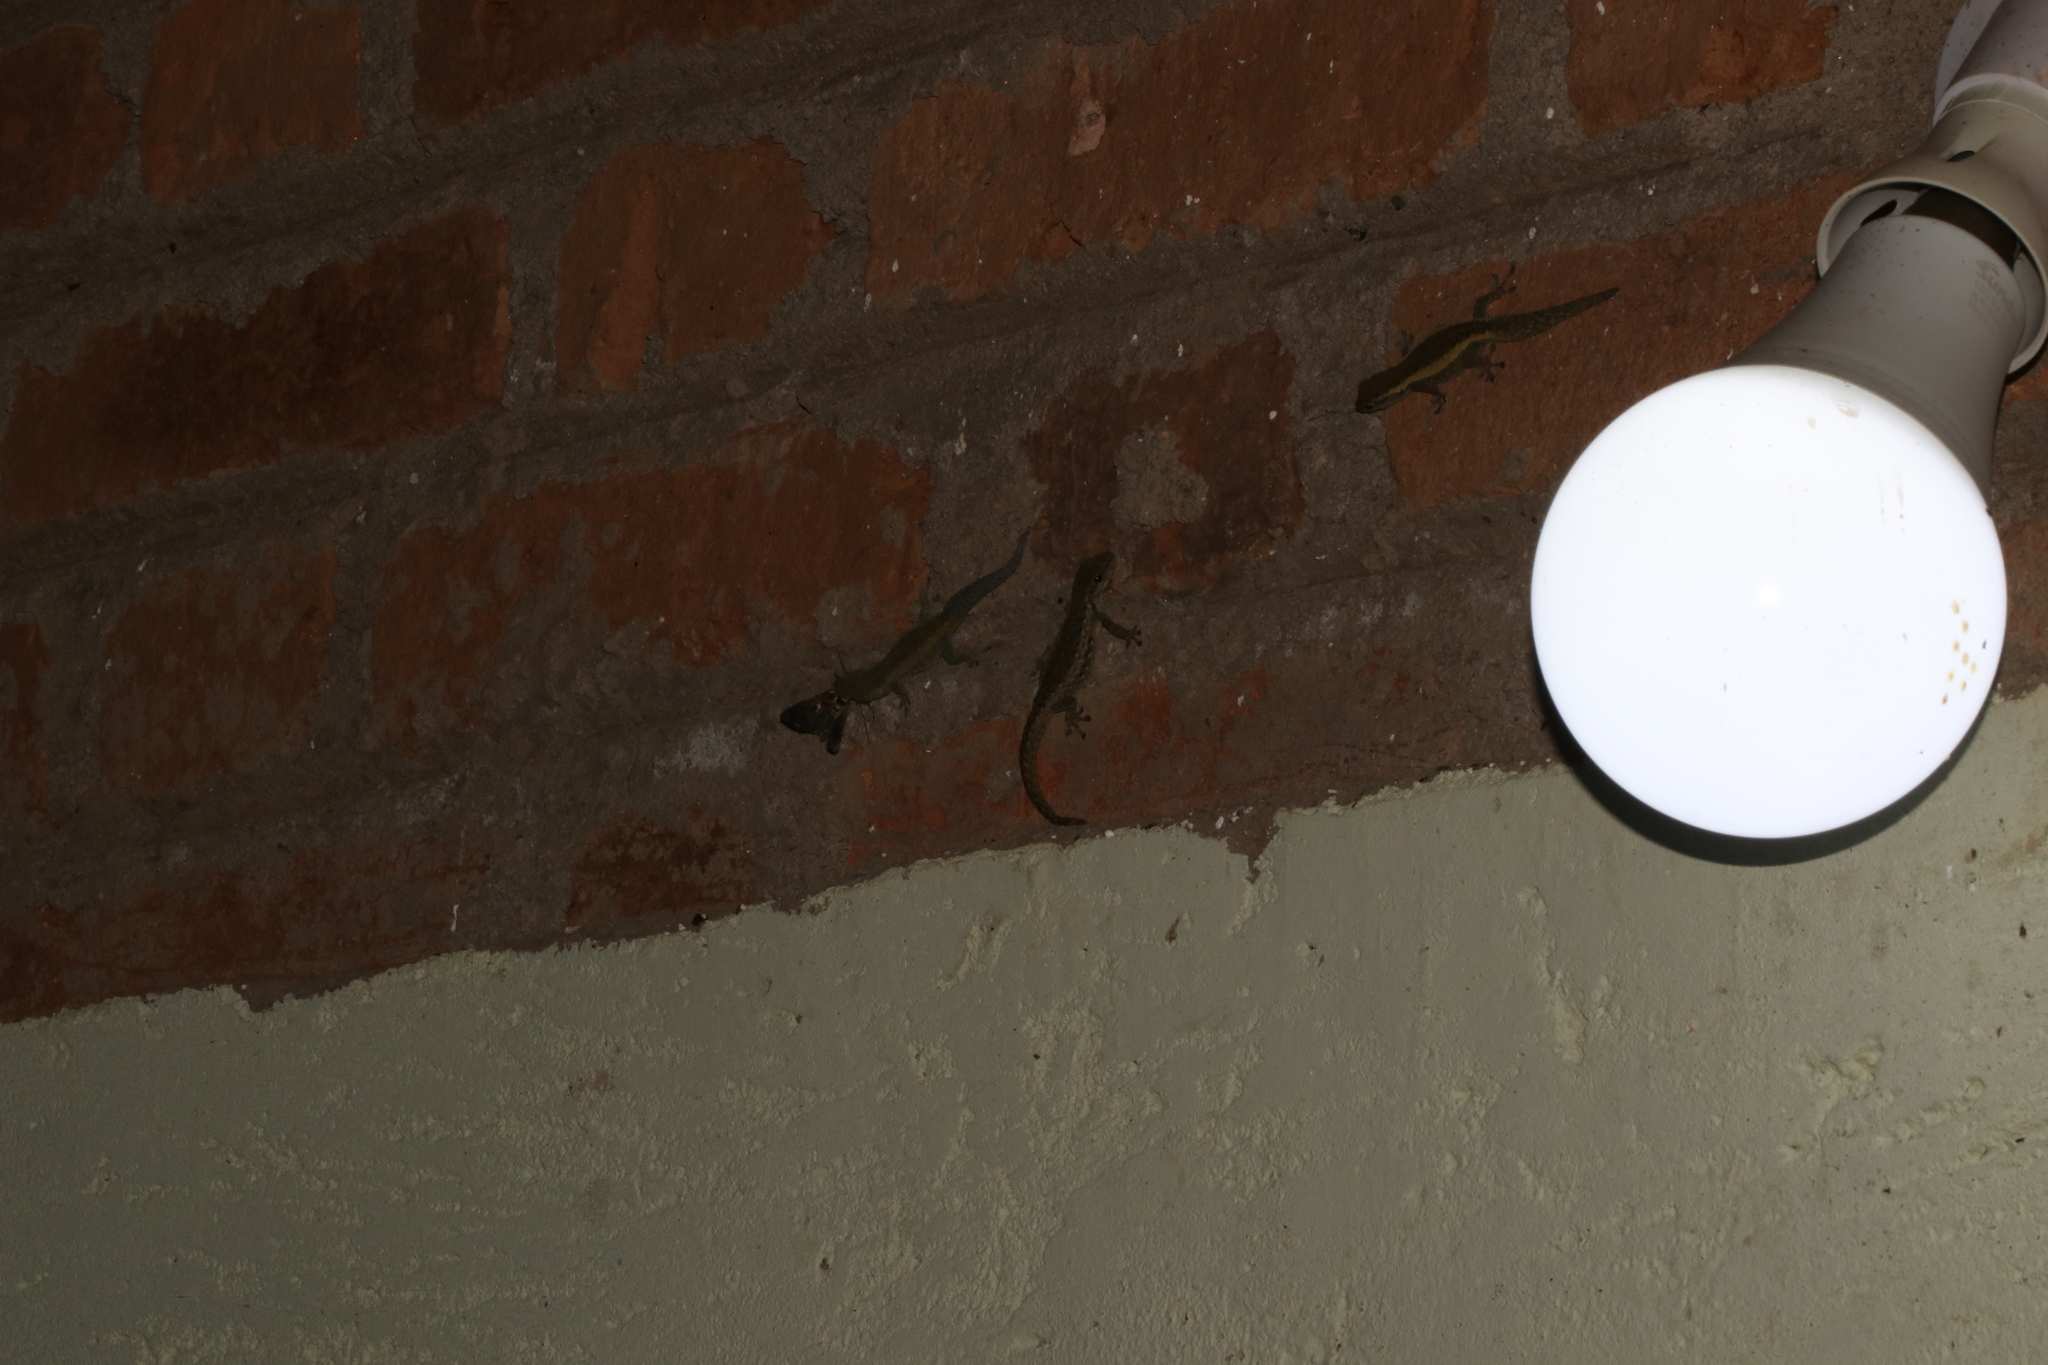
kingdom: Animalia
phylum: Chordata
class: Squamata
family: Gekkonidae
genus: Lygodactylus
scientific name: Lygodactylus angularis
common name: Angulate dwarf gecko
